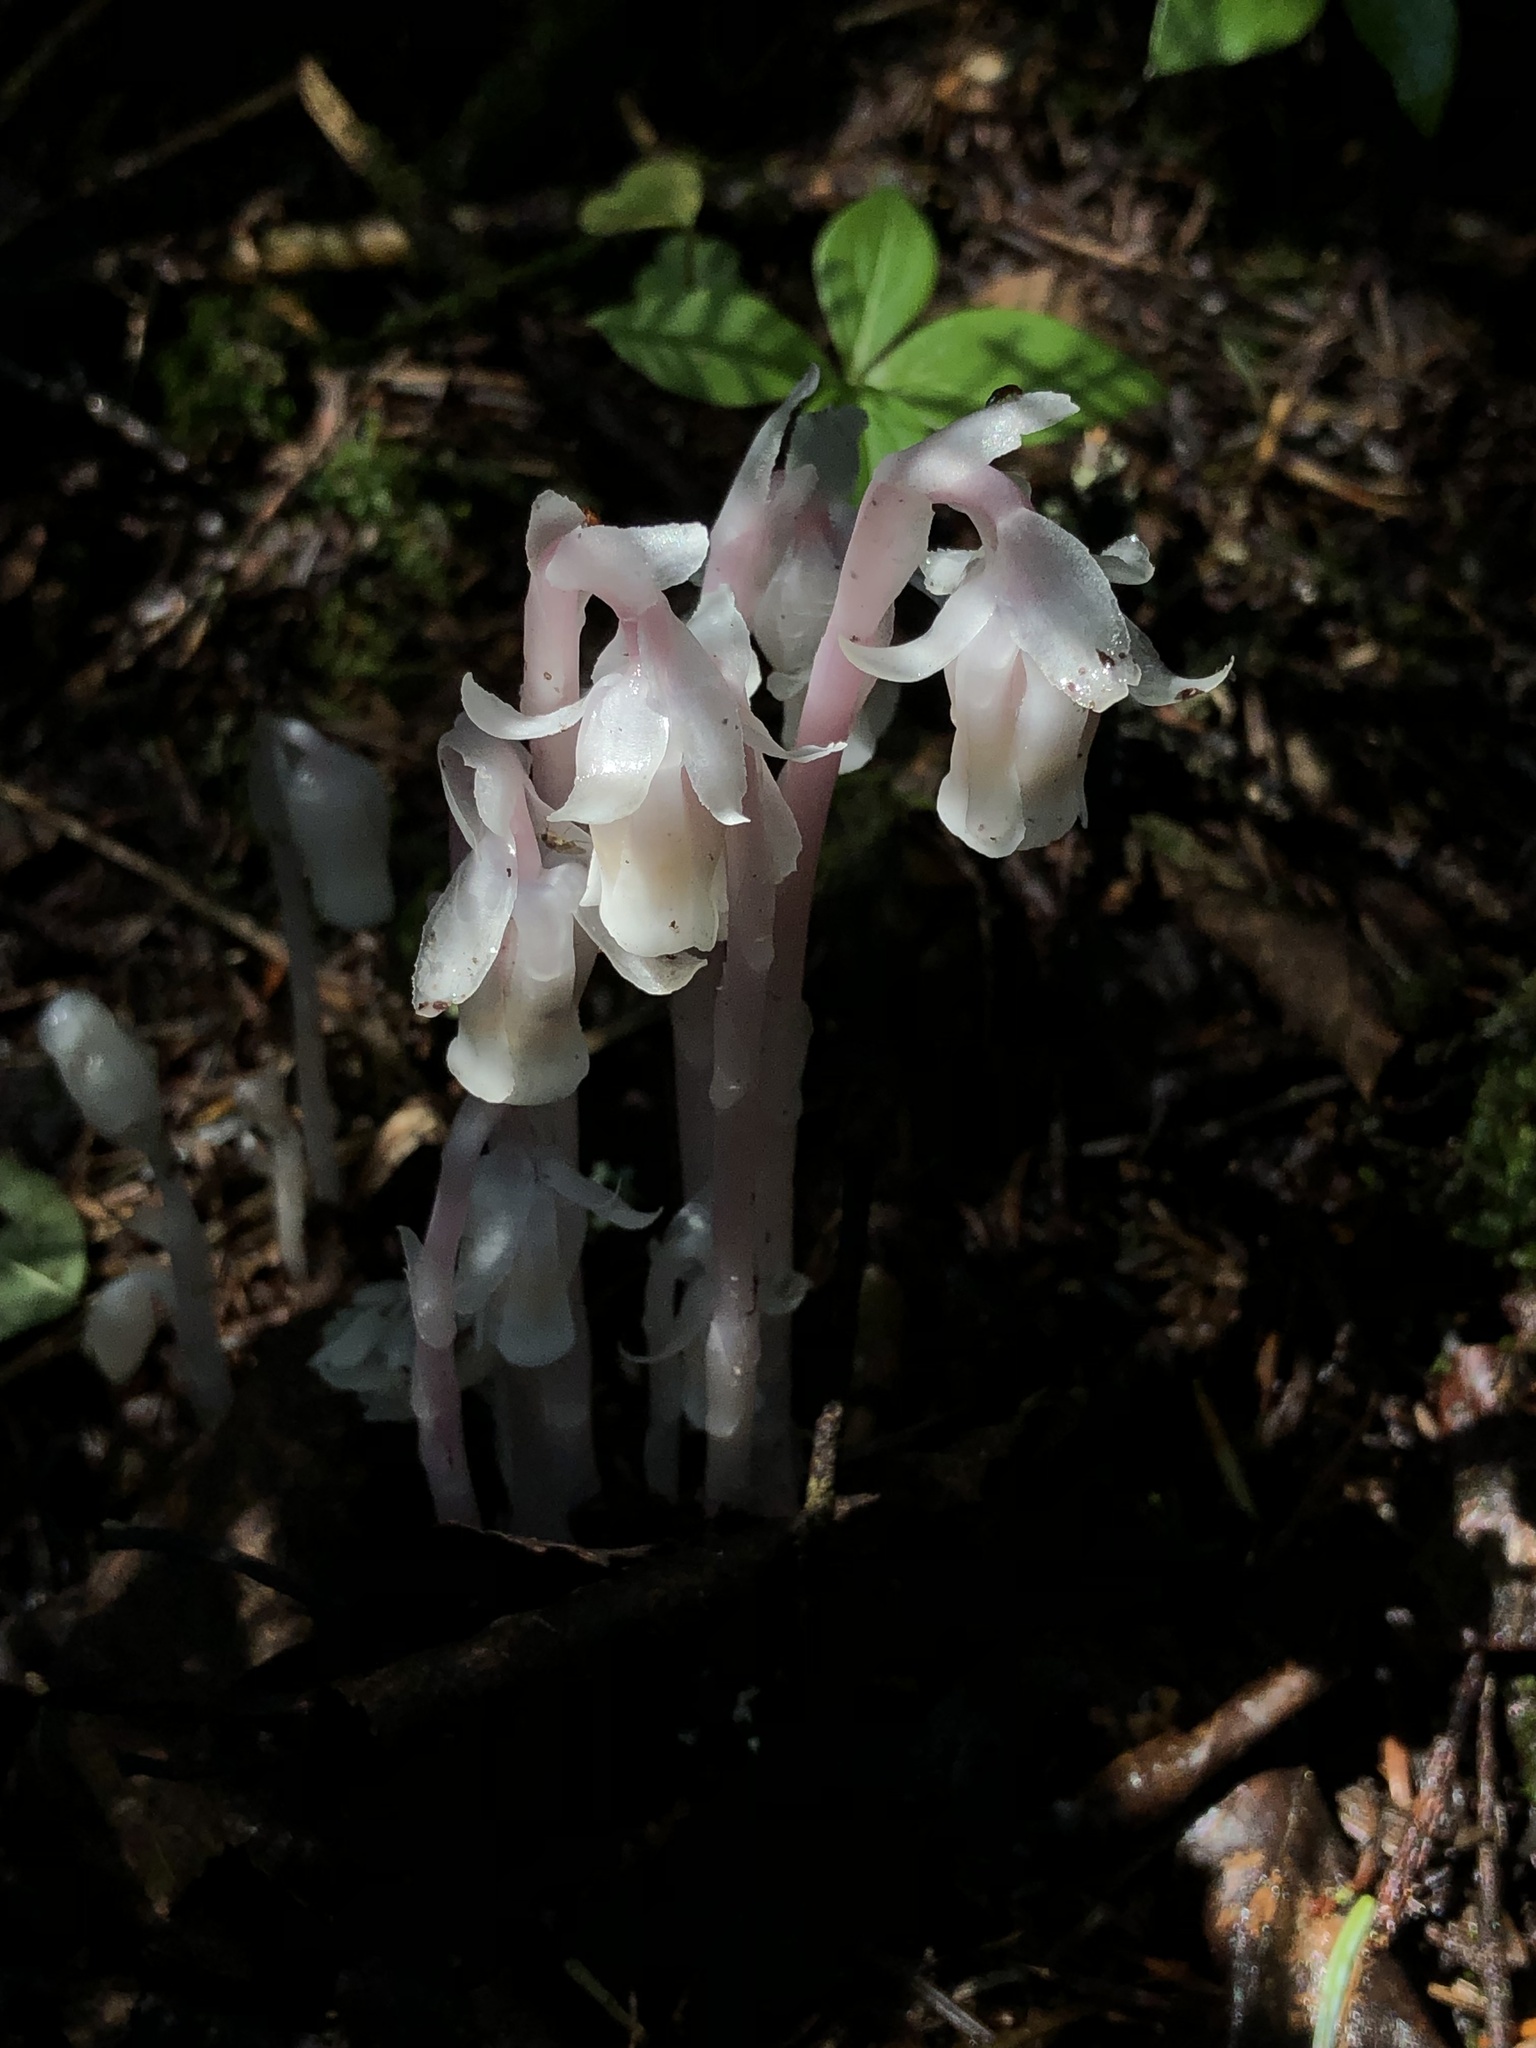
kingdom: Plantae
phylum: Tracheophyta
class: Magnoliopsida
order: Ericales
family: Ericaceae
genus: Monotropa
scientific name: Monotropa uniflora
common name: Convulsion root
